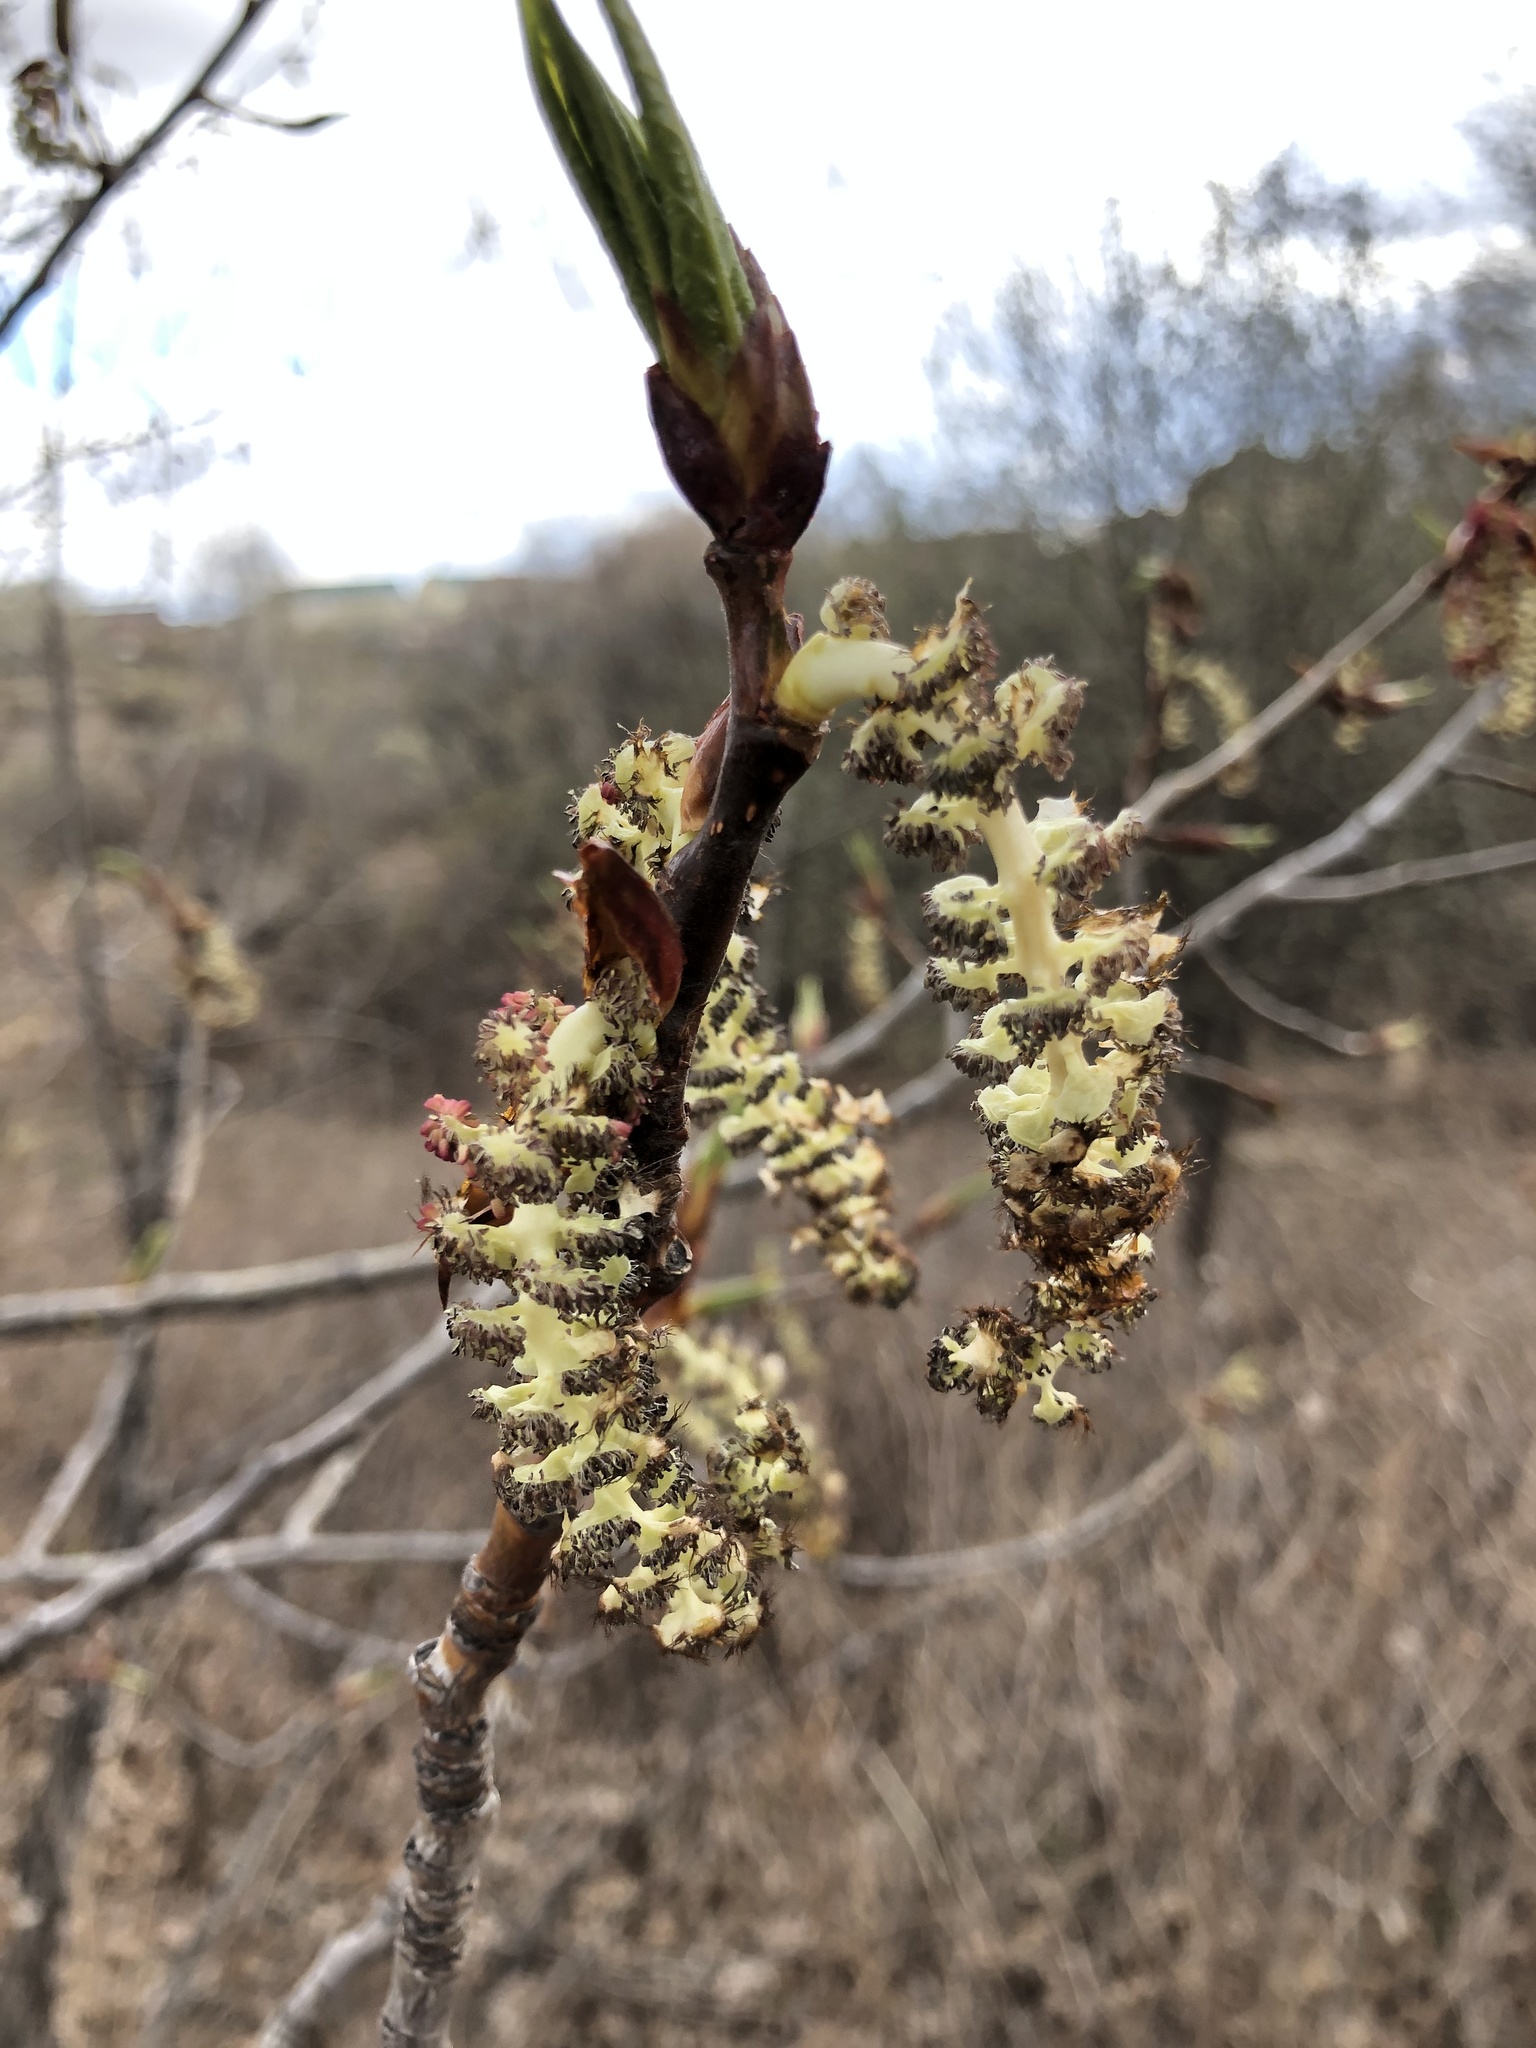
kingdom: Plantae
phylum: Tracheophyta
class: Magnoliopsida
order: Malpighiales
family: Salicaceae
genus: Populus
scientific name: Populus tremula
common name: European aspen
